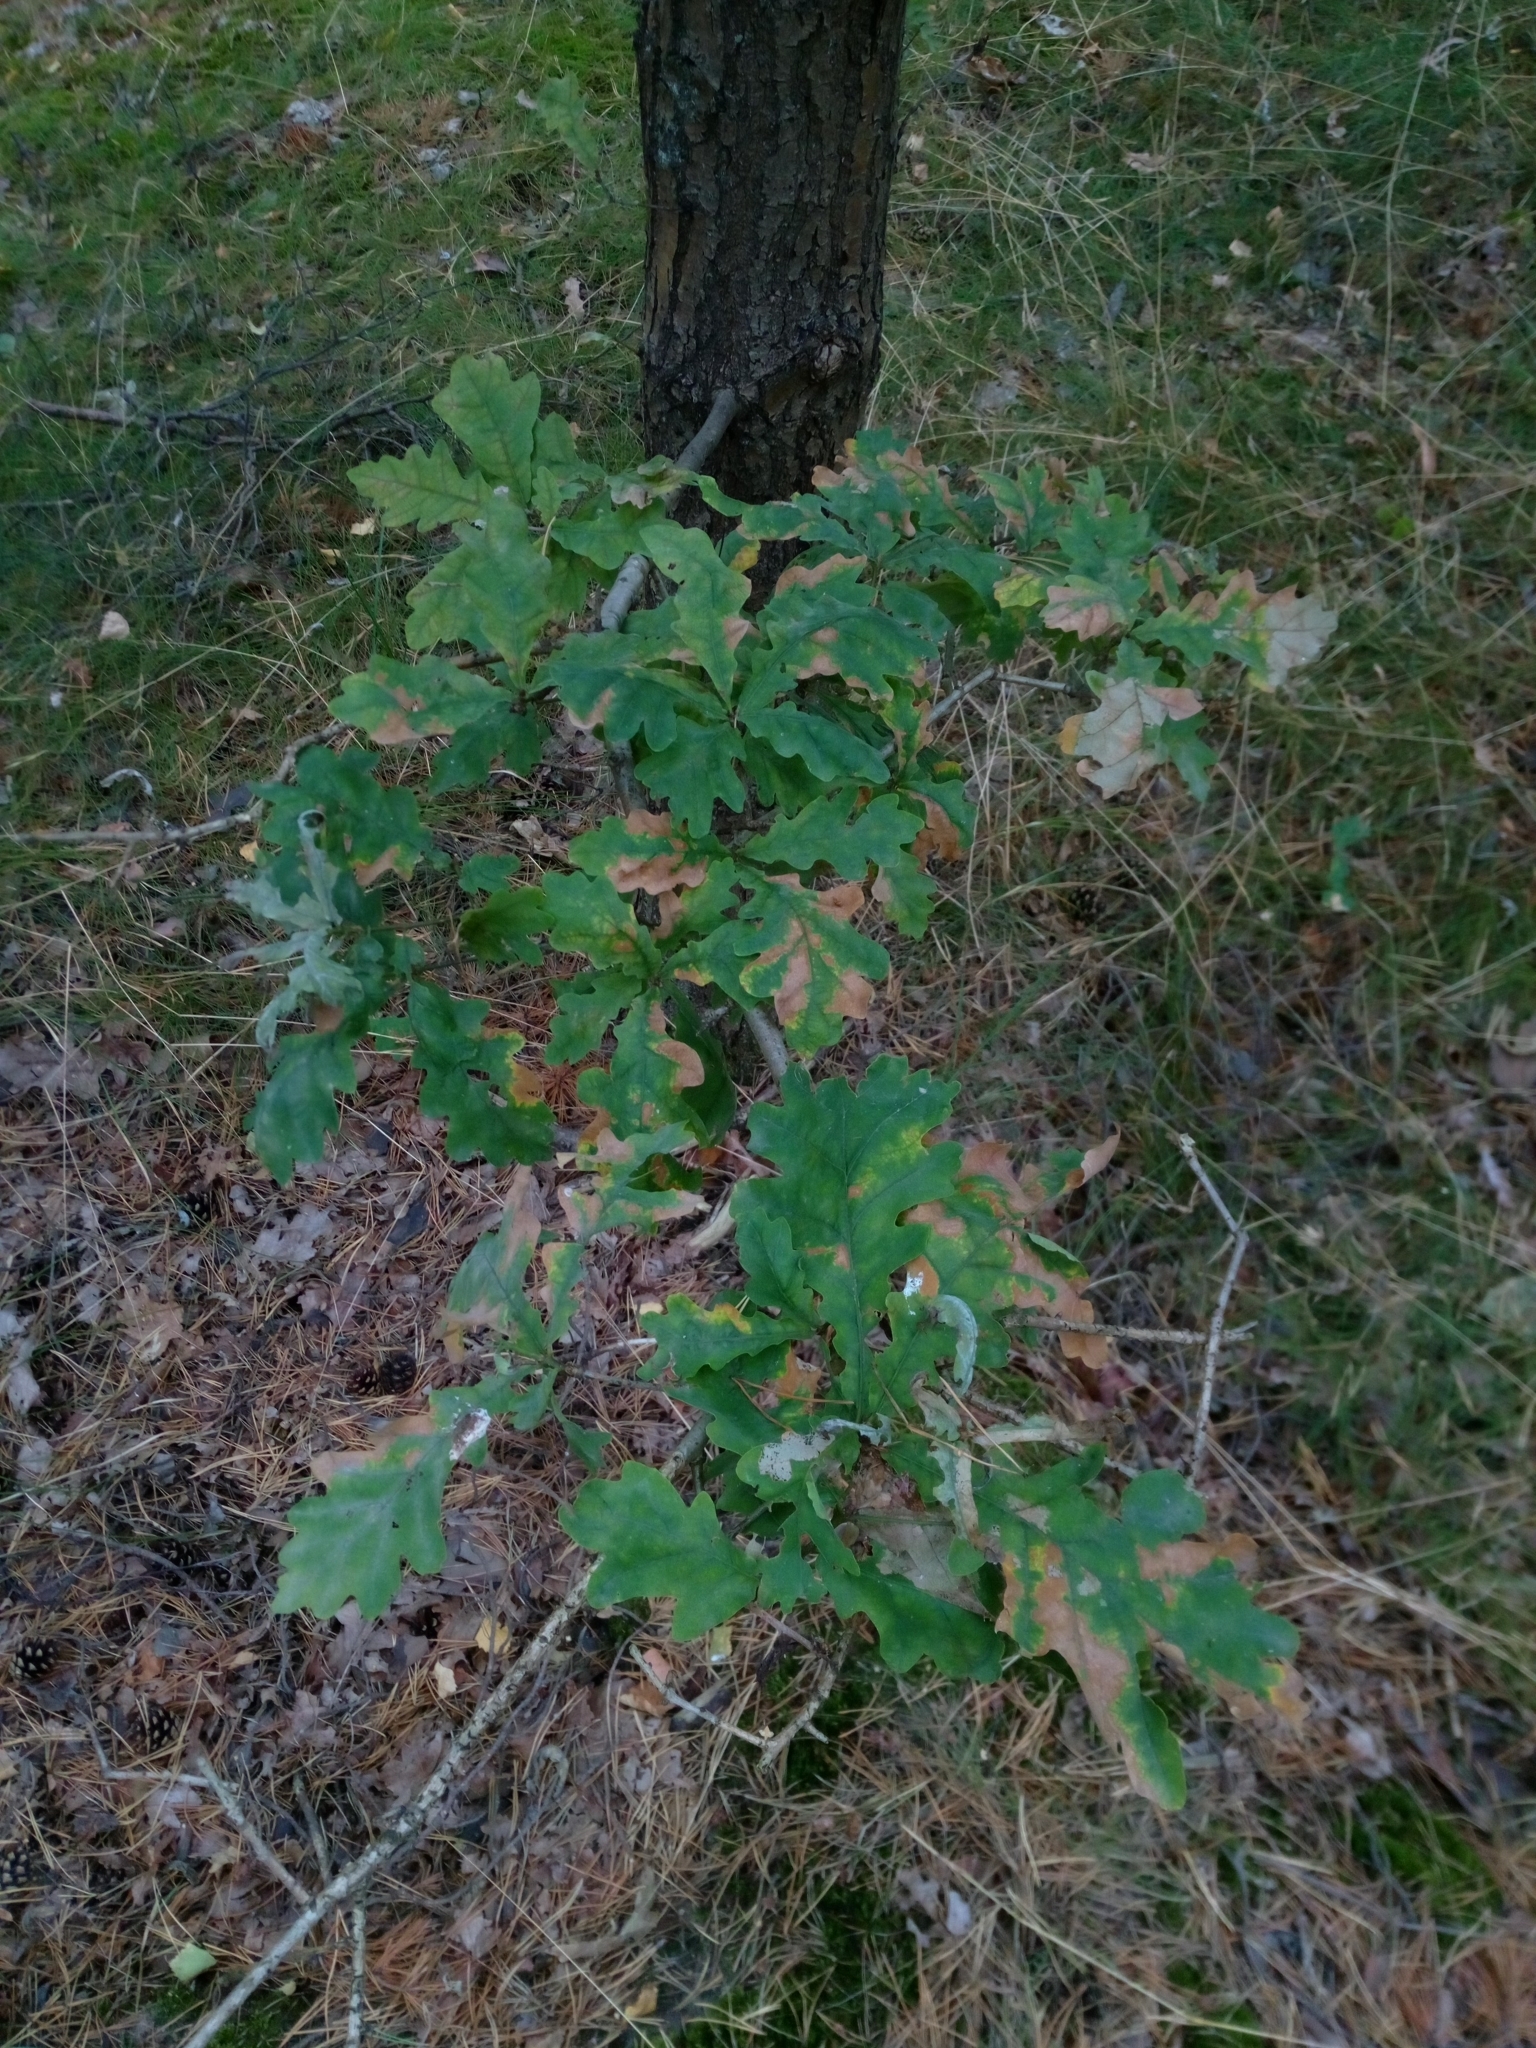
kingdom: Plantae
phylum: Tracheophyta
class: Magnoliopsida
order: Fagales
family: Fagaceae
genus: Quercus
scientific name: Quercus robur
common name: Pedunculate oak
